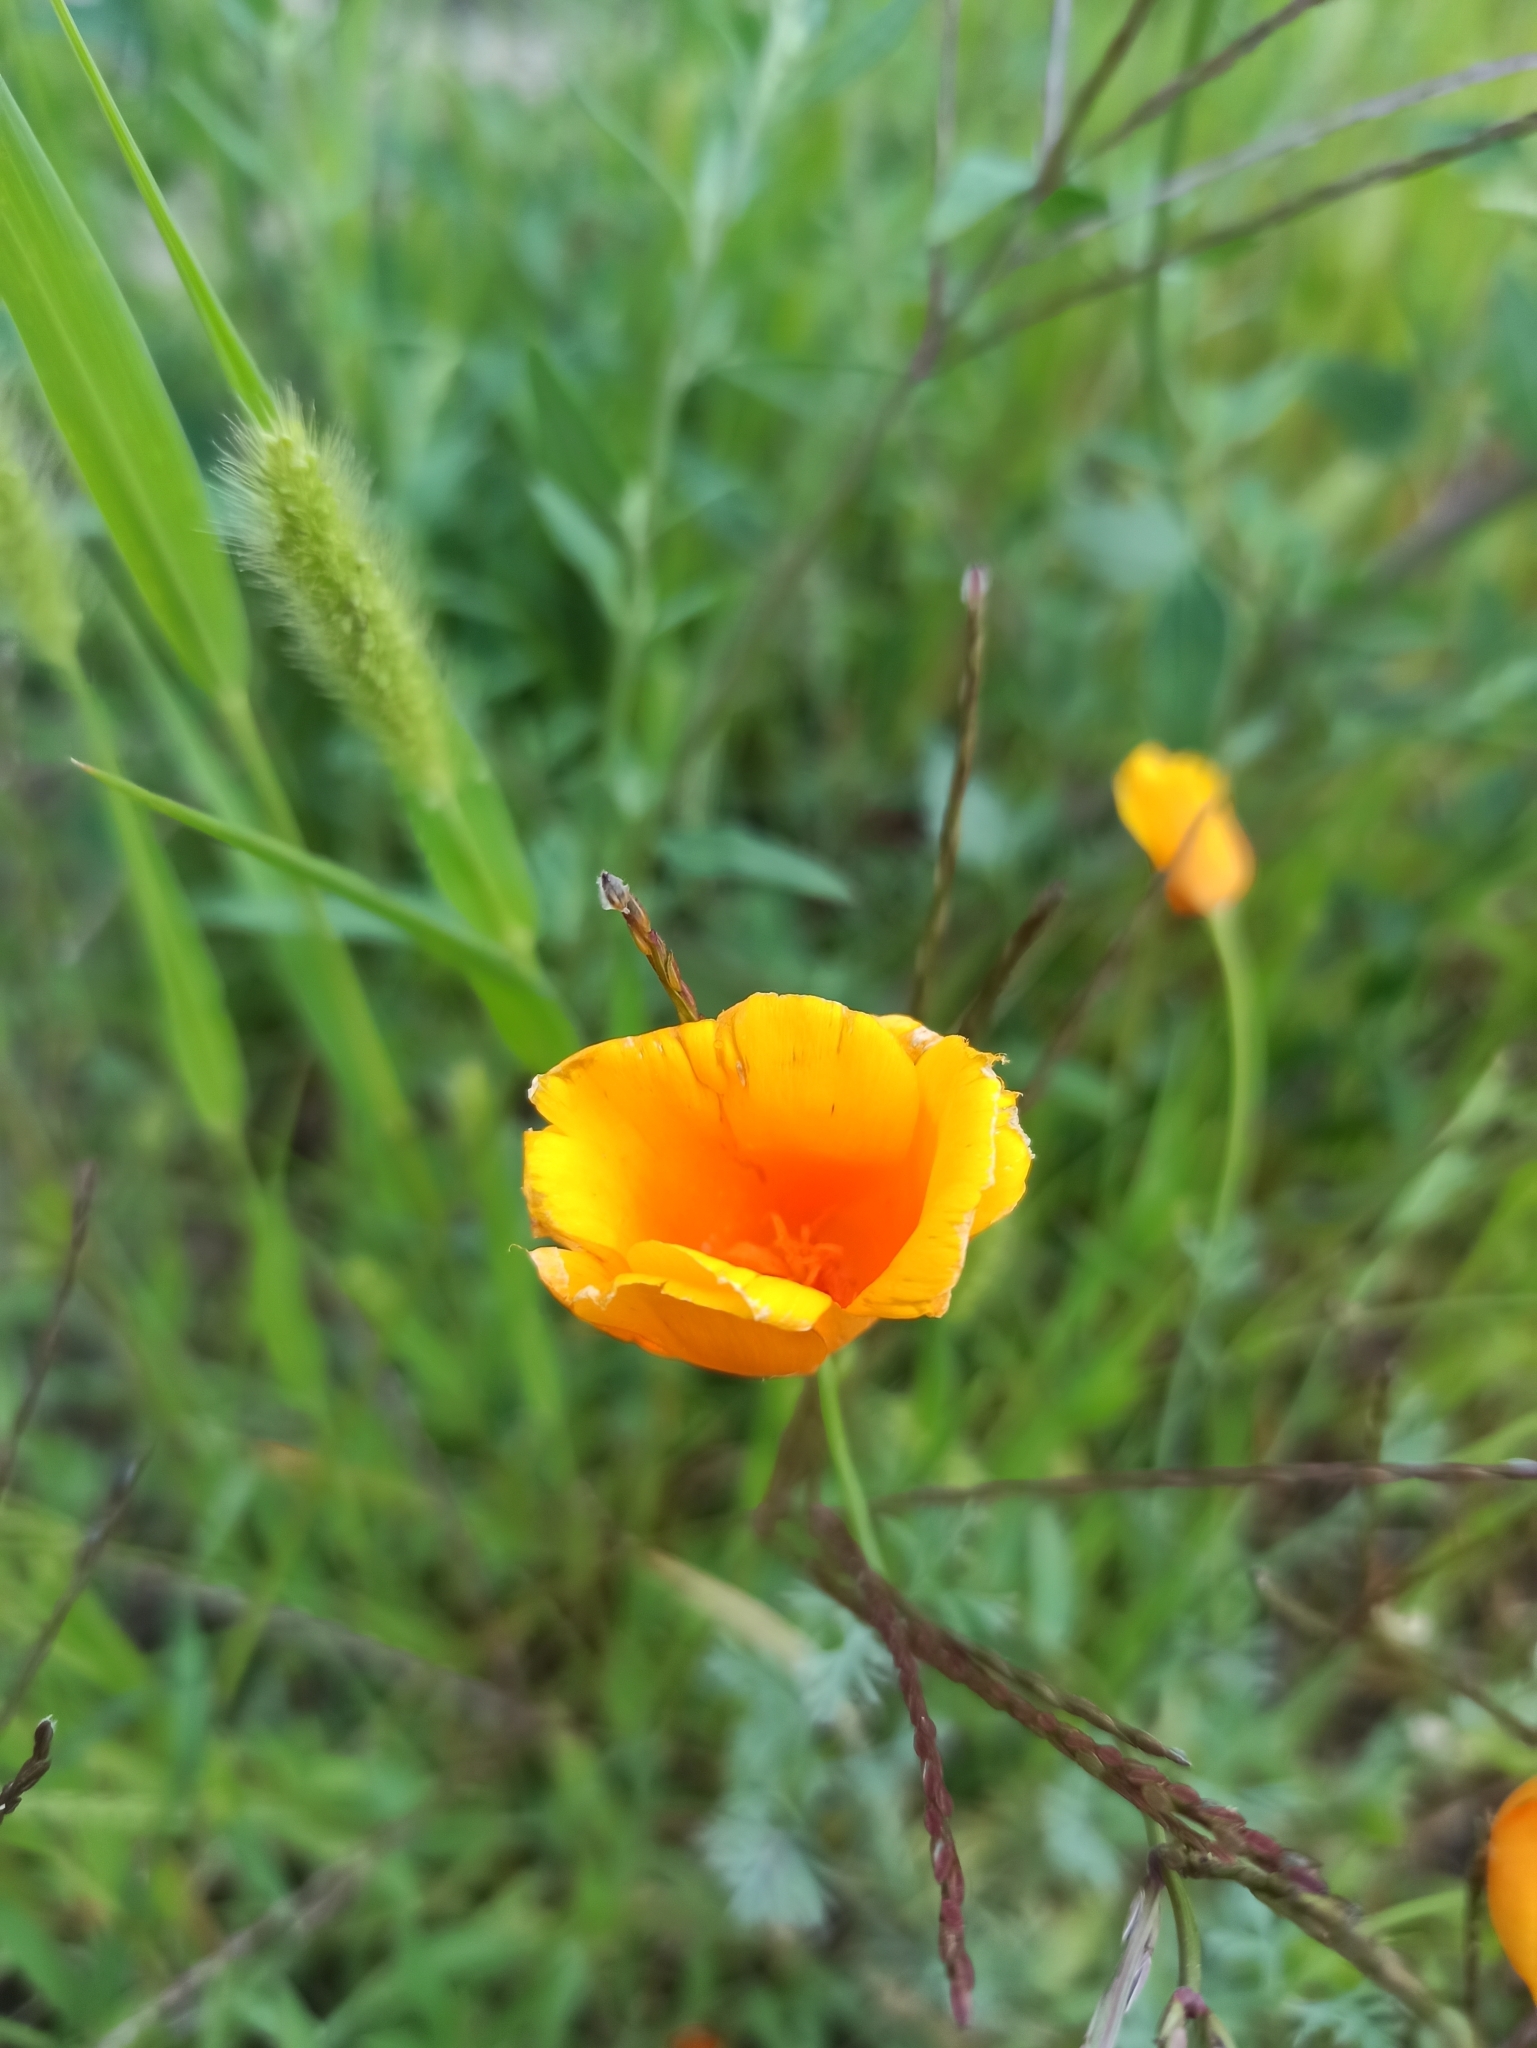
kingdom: Plantae
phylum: Tracheophyta
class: Magnoliopsida
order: Ranunculales
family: Papaveraceae
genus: Eschscholzia
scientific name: Eschscholzia californica
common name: California poppy
